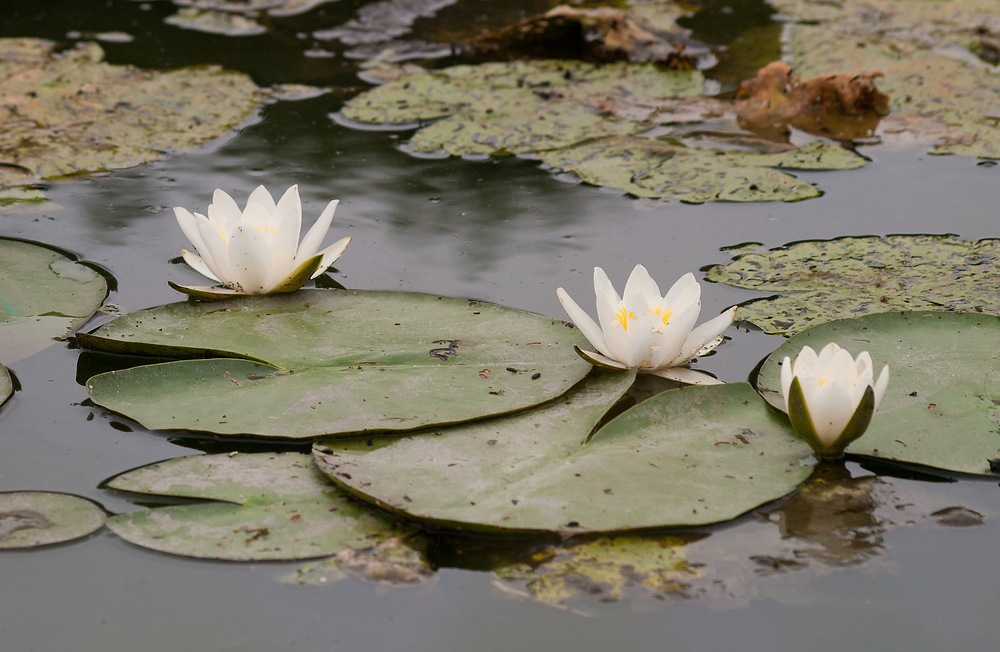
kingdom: Plantae
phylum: Tracheophyta
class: Magnoliopsida
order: Nymphaeales
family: Nymphaeaceae
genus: Nymphaea
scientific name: Nymphaea alba
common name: White water-lily
